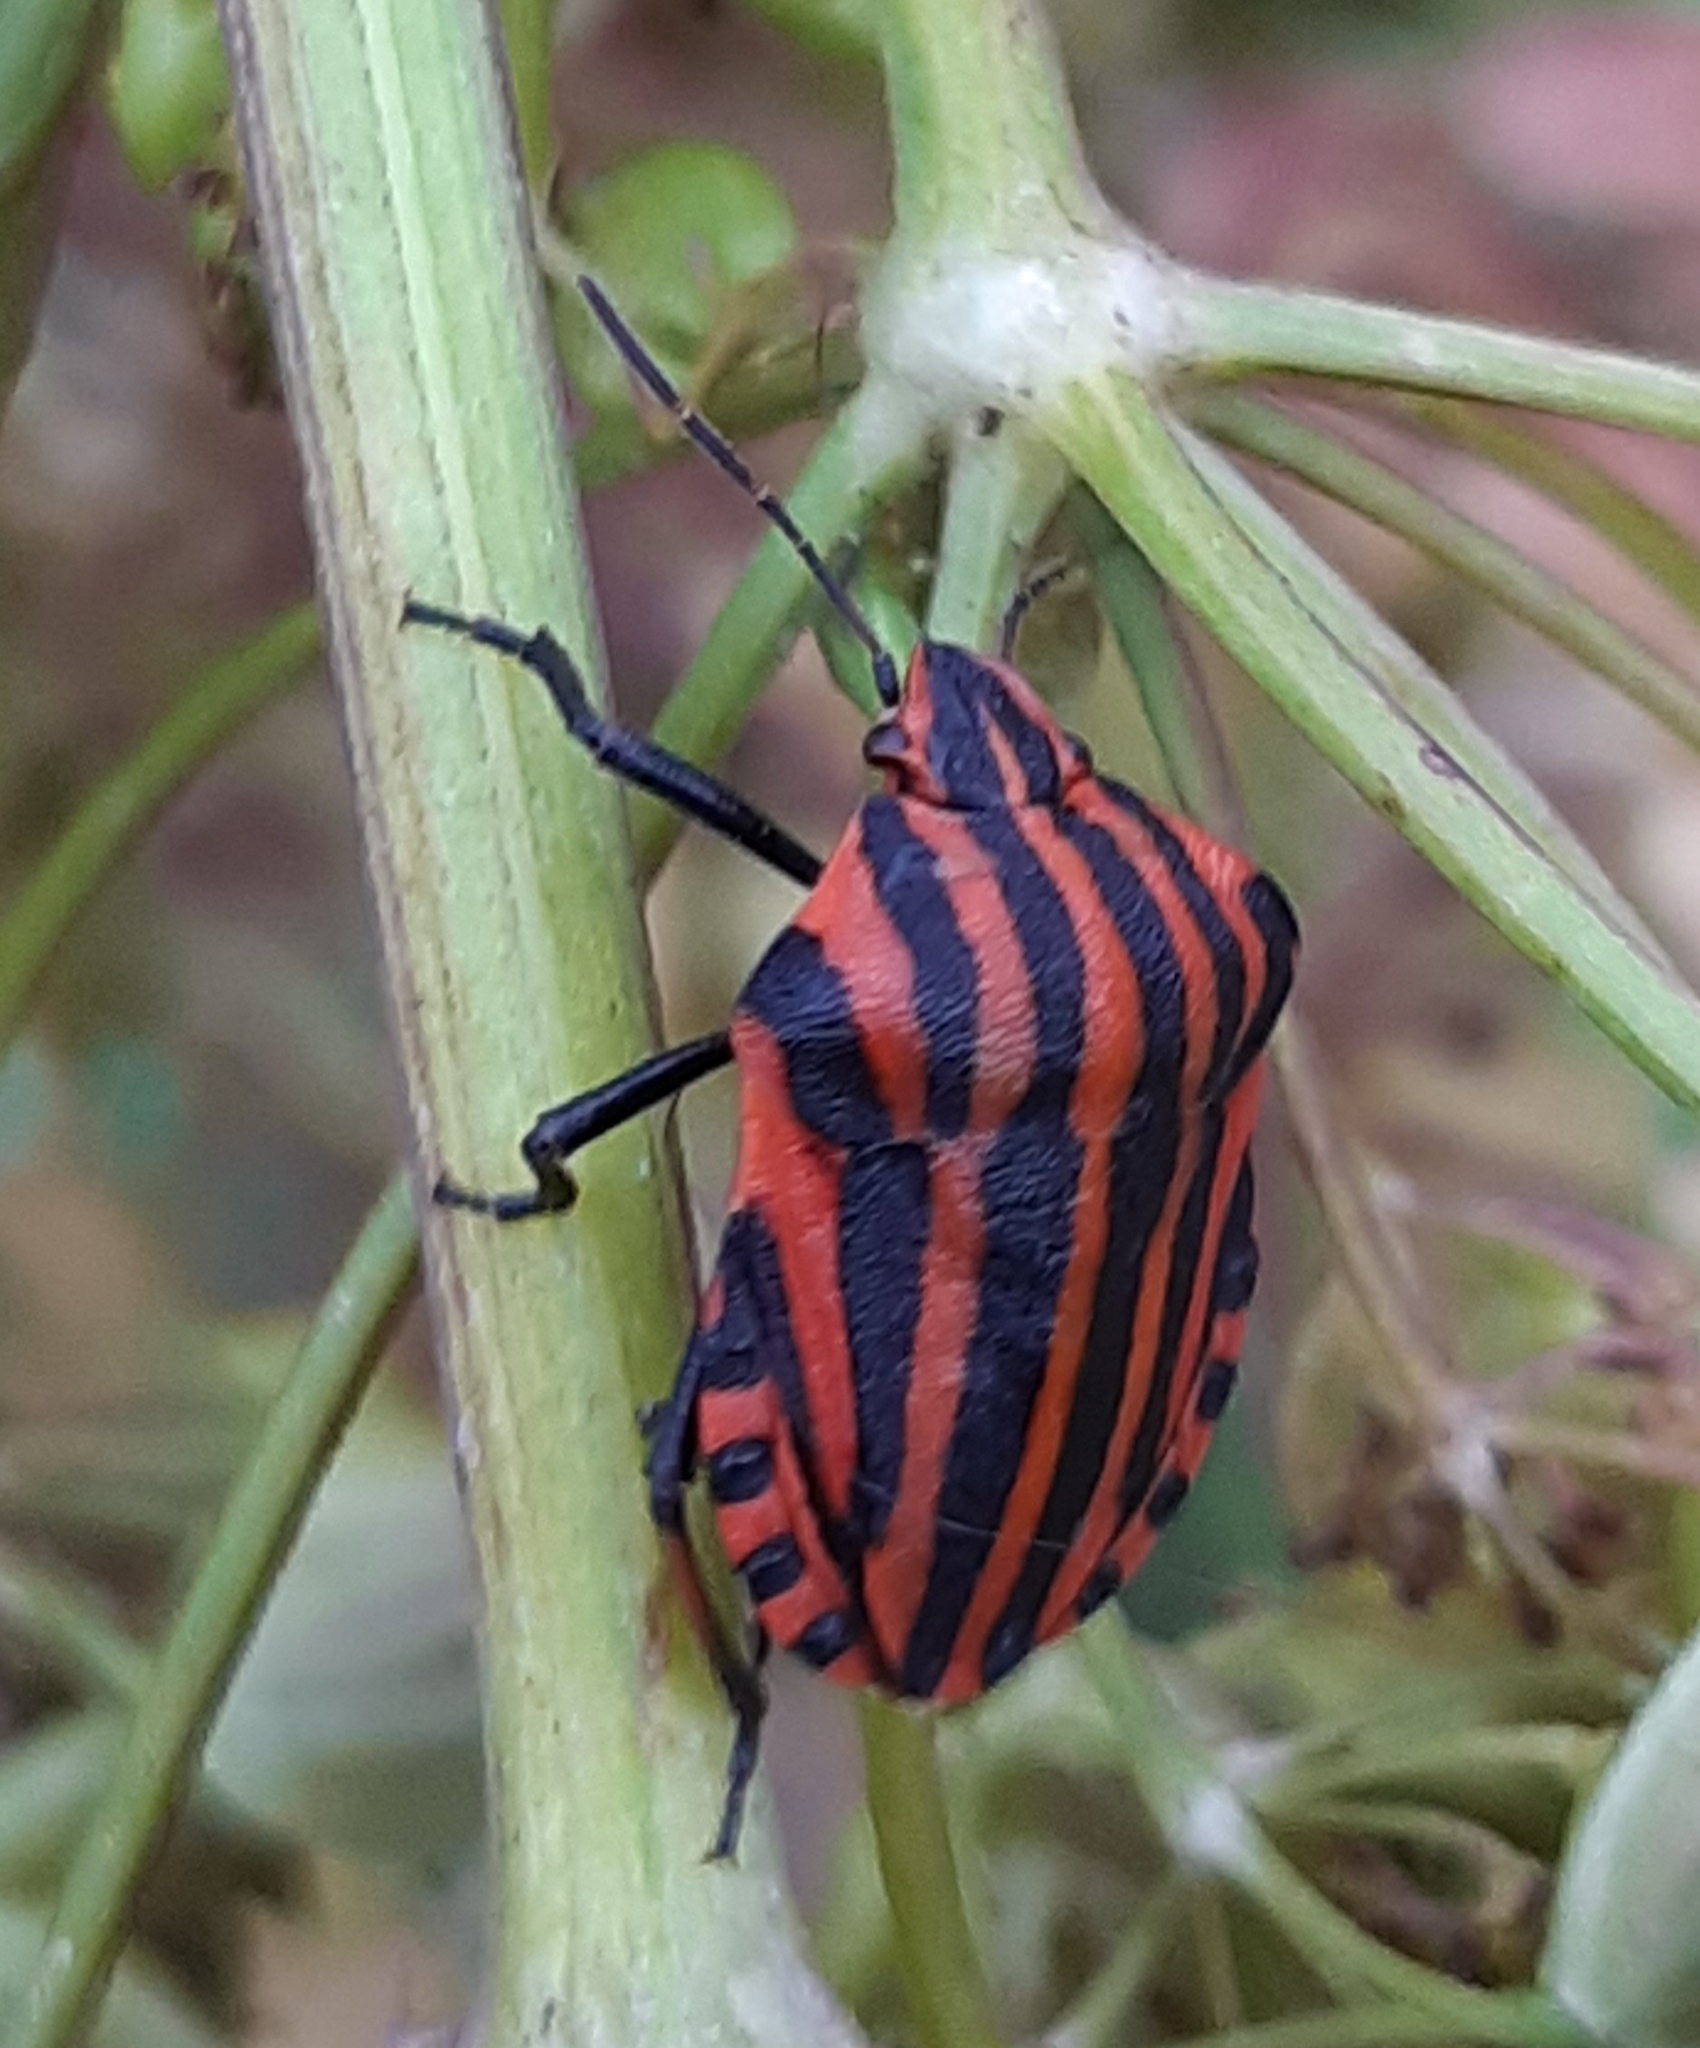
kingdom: Animalia
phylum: Arthropoda
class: Insecta
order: Hemiptera
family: Pentatomidae
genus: Graphosoma
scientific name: Graphosoma italicum
